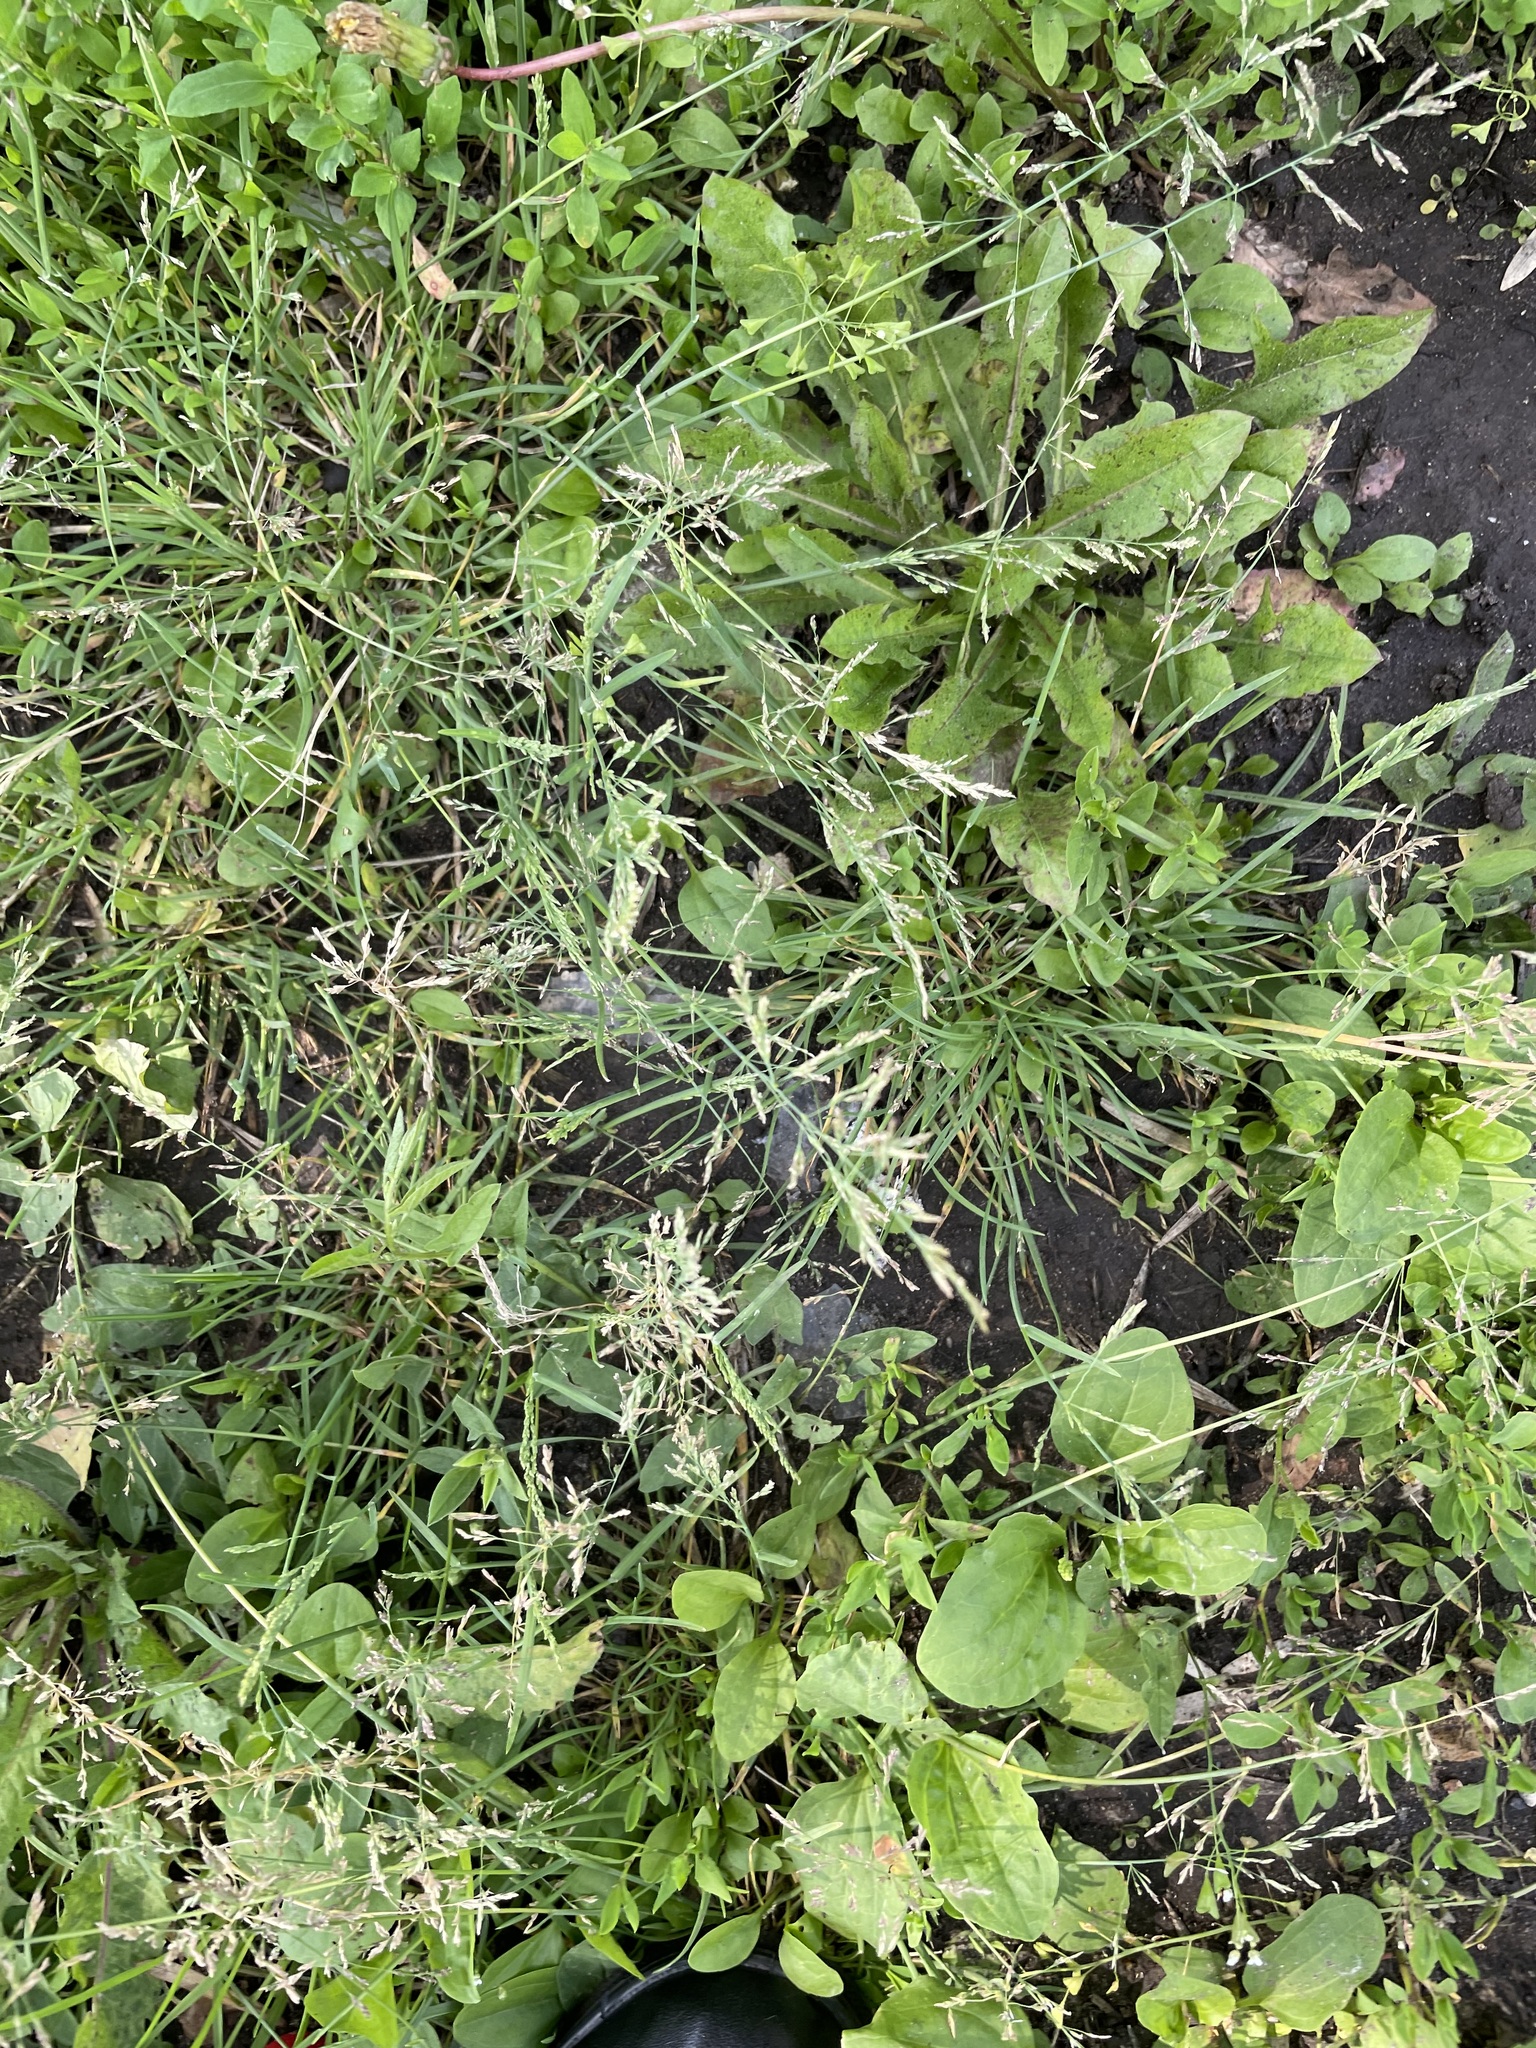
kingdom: Plantae
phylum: Tracheophyta
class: Liliopsida
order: Poales
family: Poaceae
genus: Puccinellia
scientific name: Puccinellia distans
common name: Weeping alkaligrass
